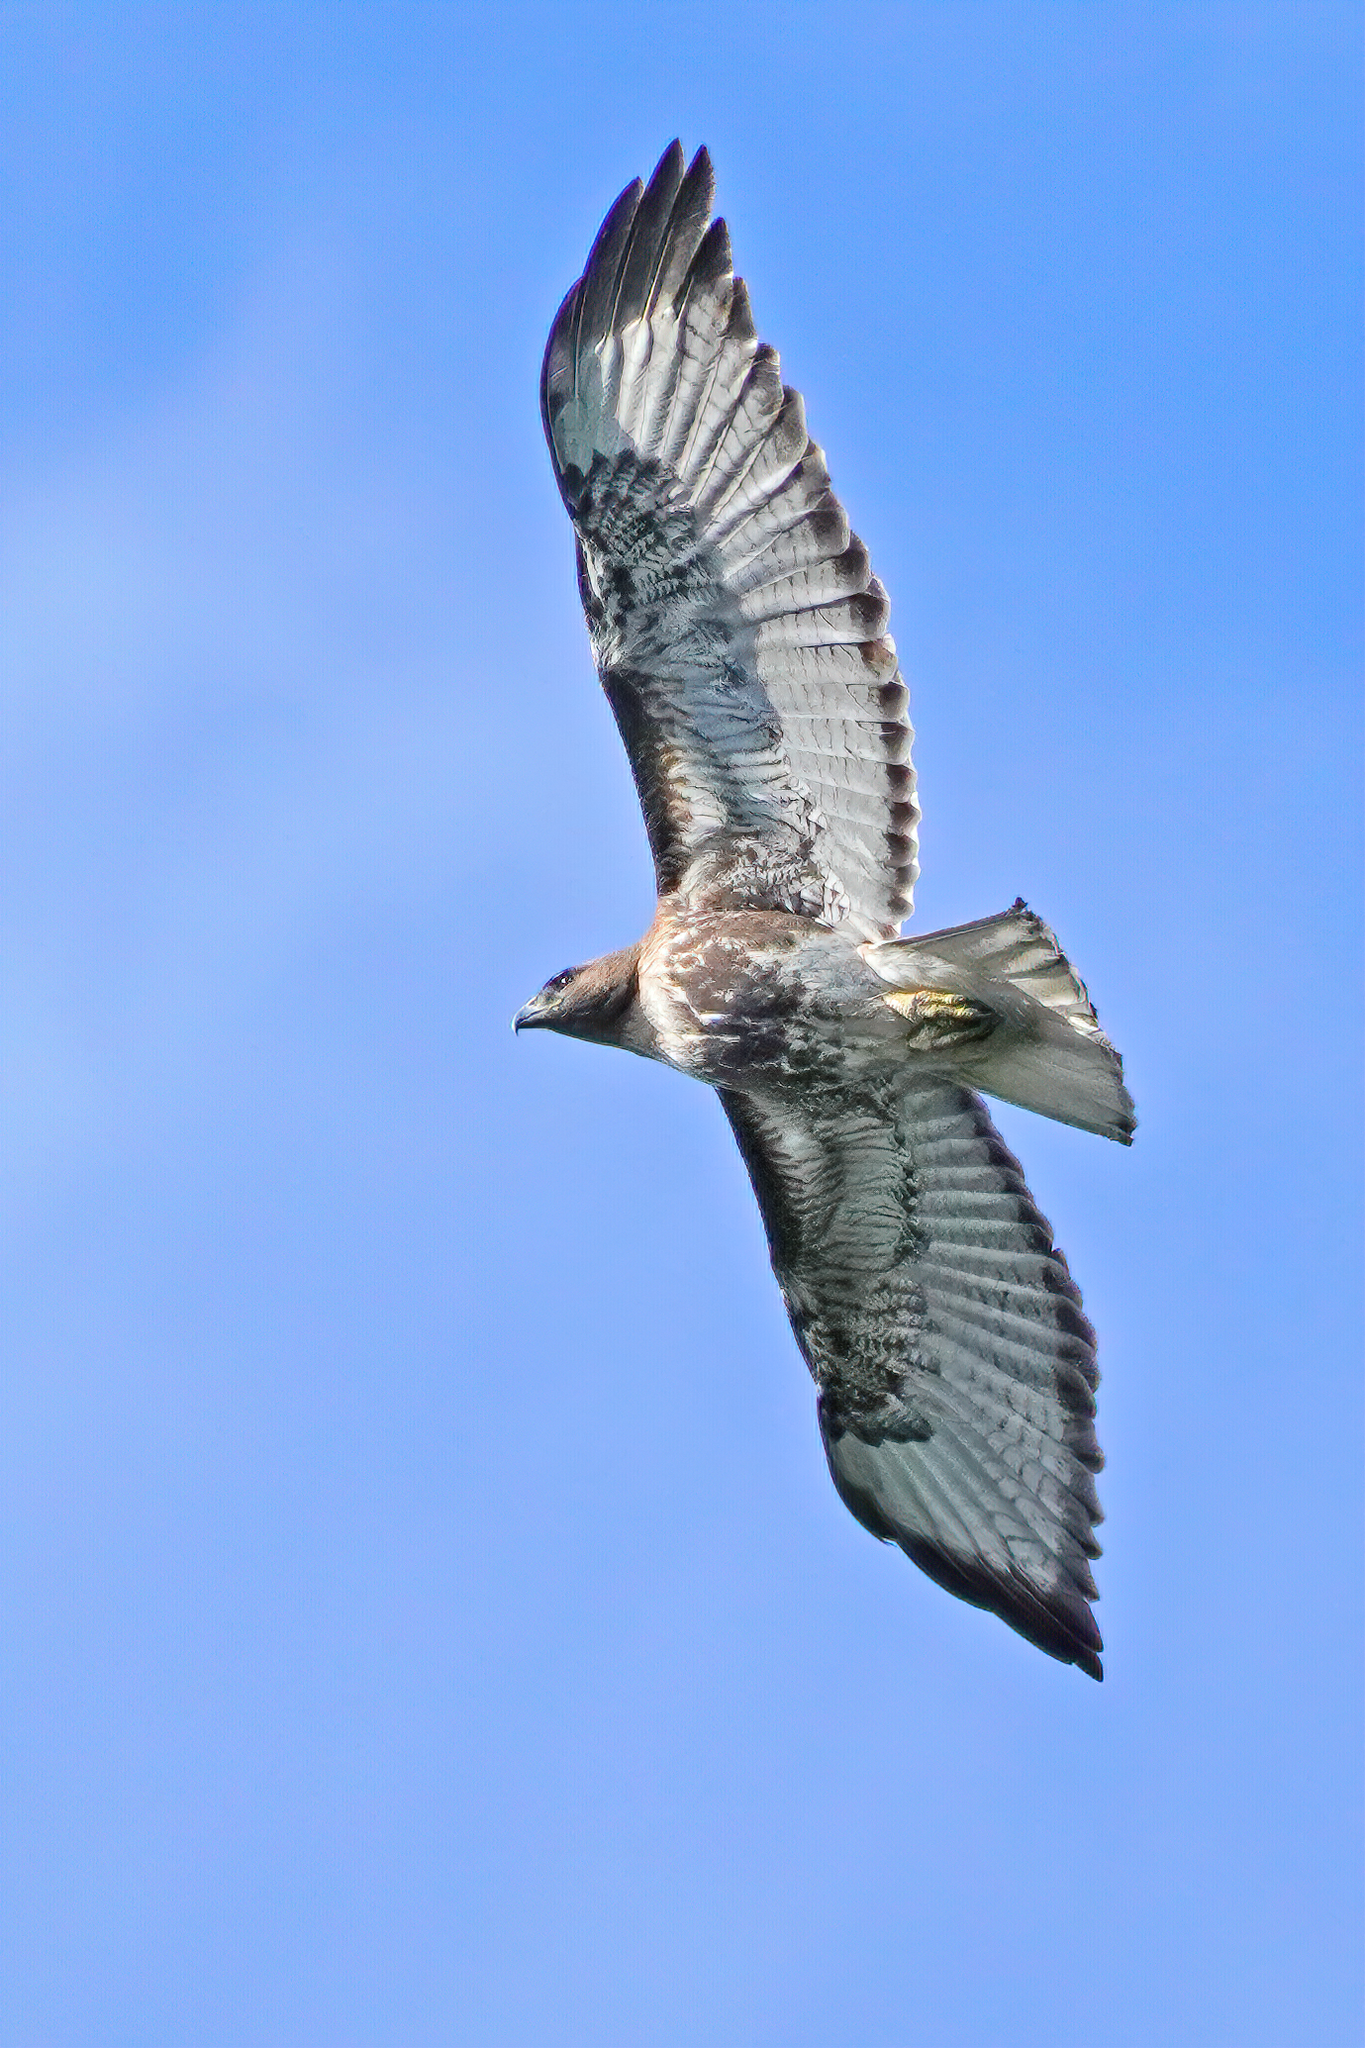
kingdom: Animalia
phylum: Chordata
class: Aves
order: Accipitriformes
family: Accipitridae
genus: Buteo
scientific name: Buteo jamaicensis
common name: Red-tailed hawk
